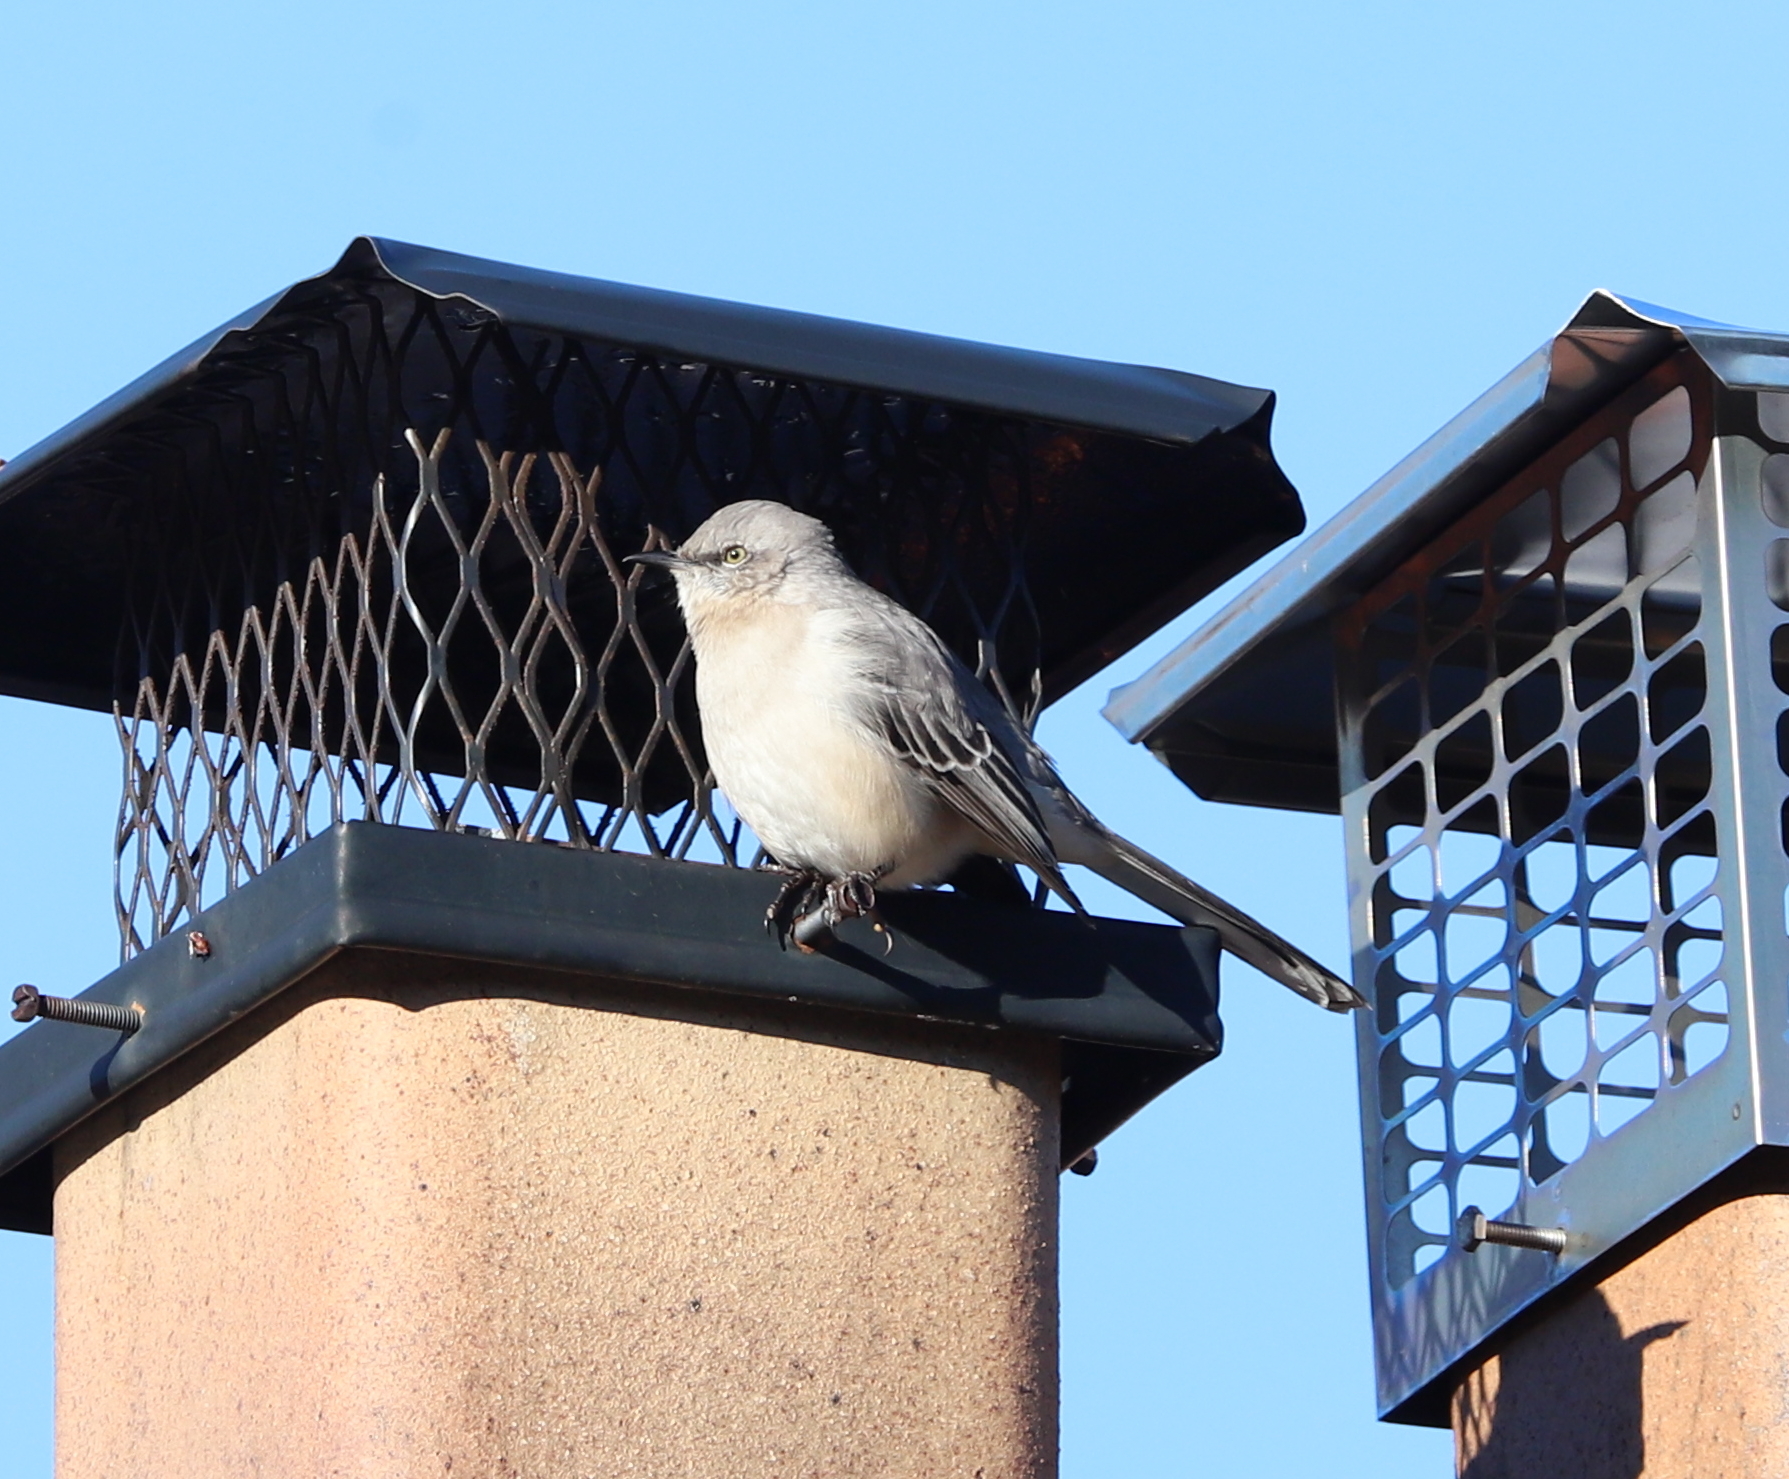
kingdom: Animalia
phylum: Chordata
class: Aves
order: Passeriformes
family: Mimidae
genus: Mimus
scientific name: Mimus polyglottos
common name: Northern mockingbird
